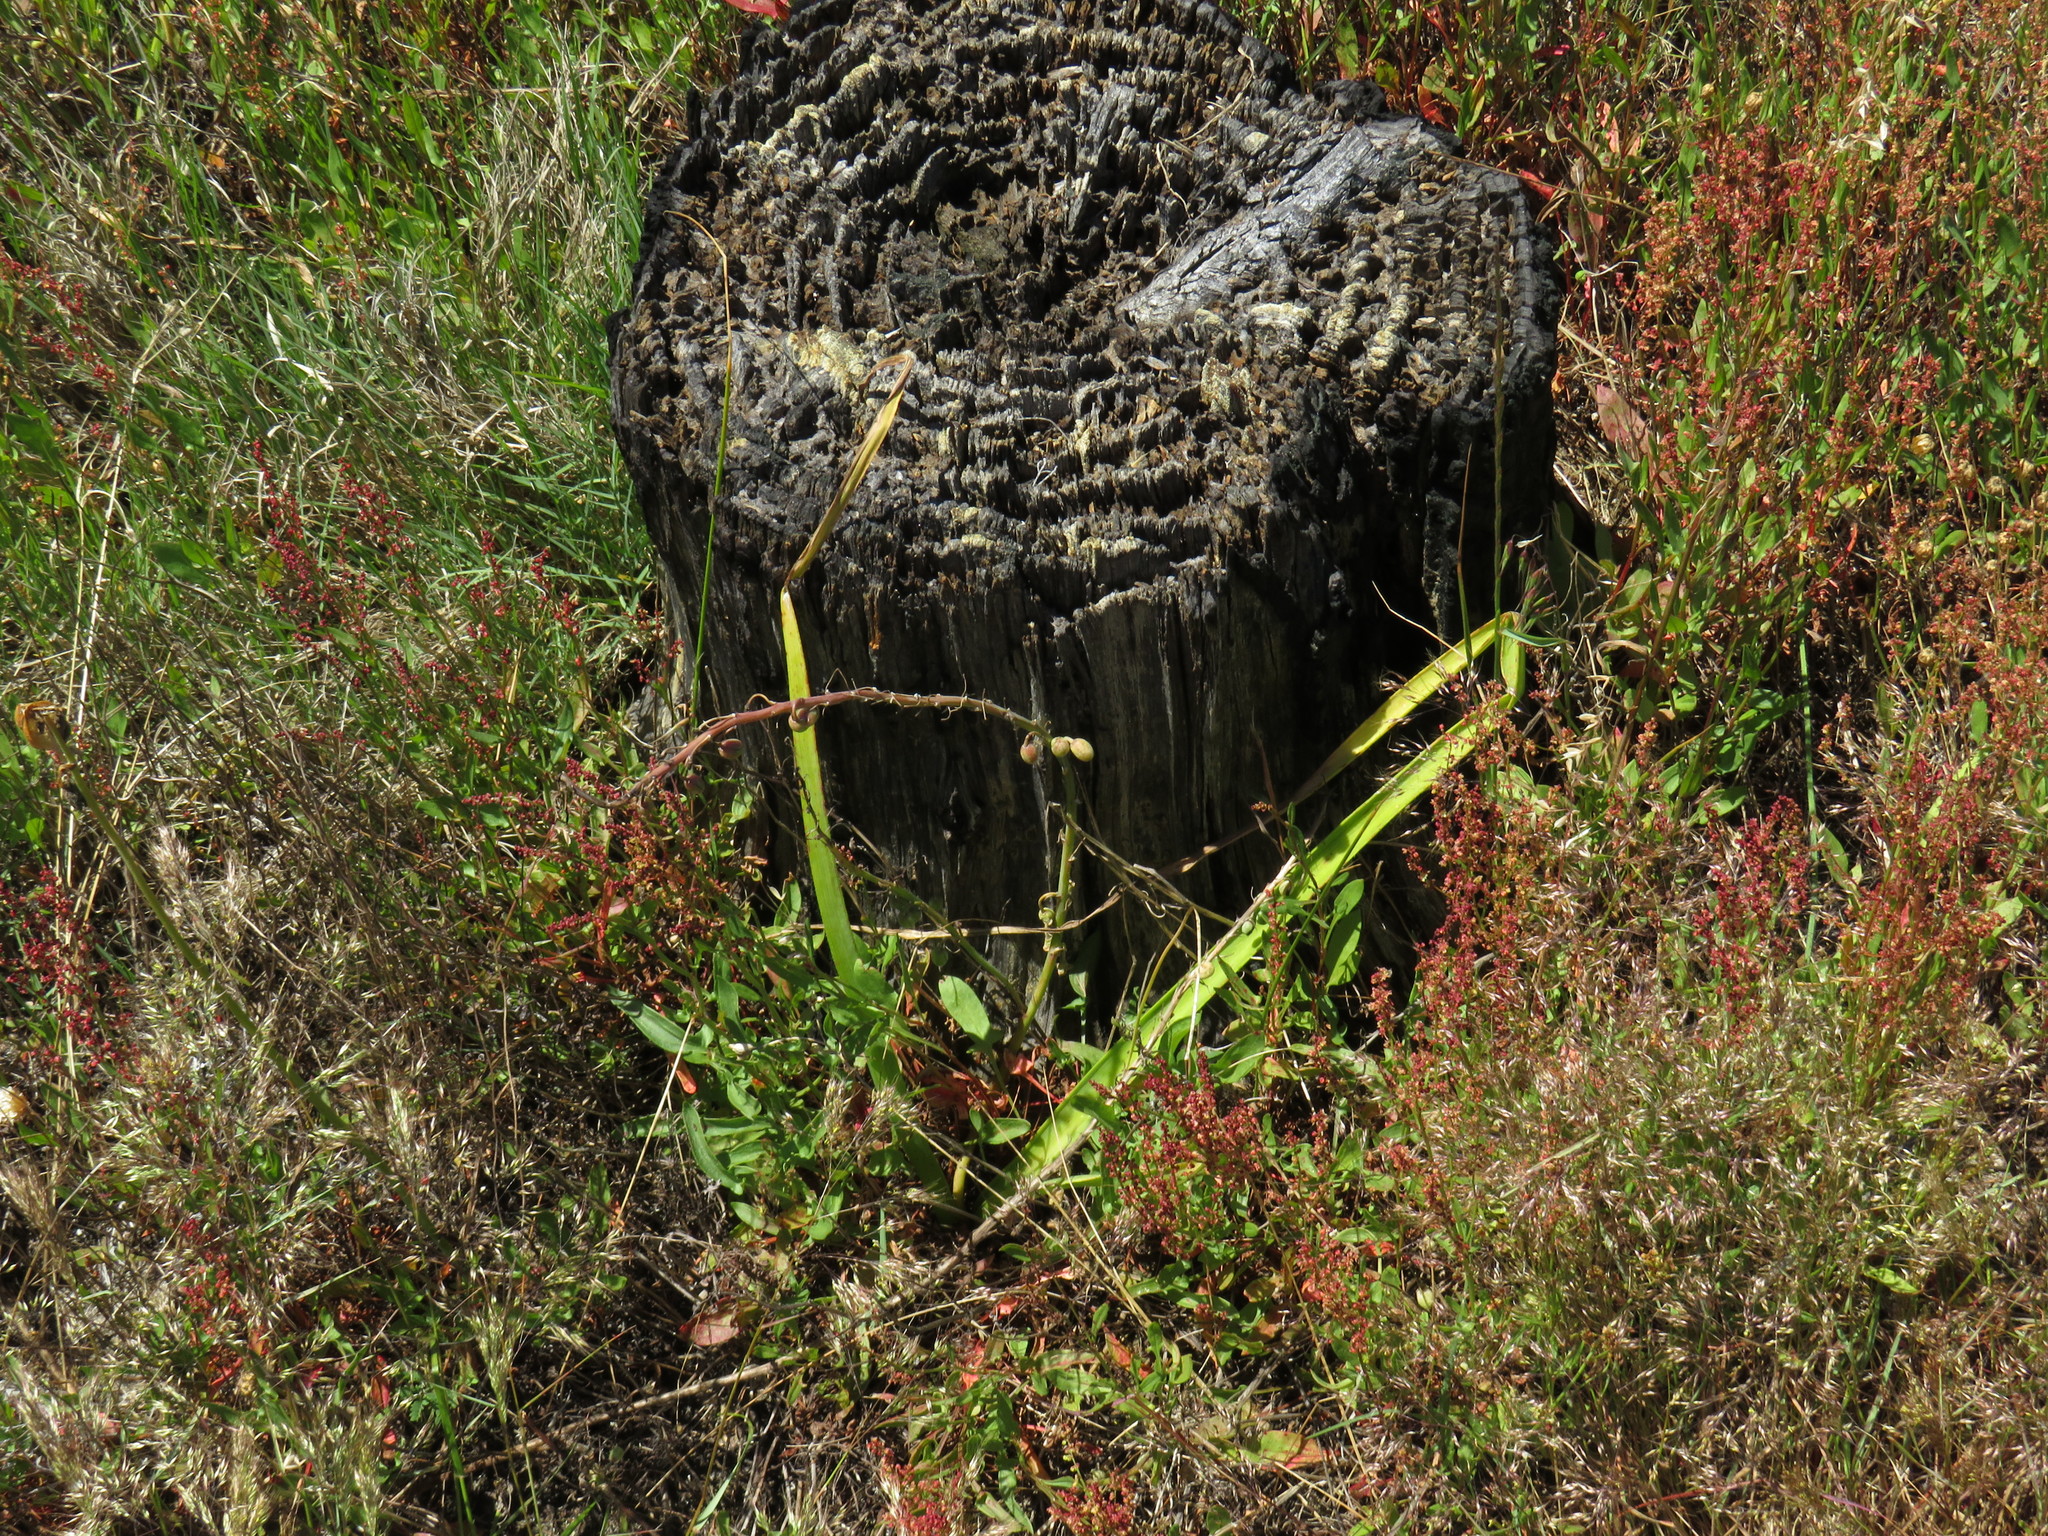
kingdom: Plantae
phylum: Tracheophyta
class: Liliopsida
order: Asparagales
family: Asphodelaceae
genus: Trachyandra
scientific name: Trachyandra ciliata
